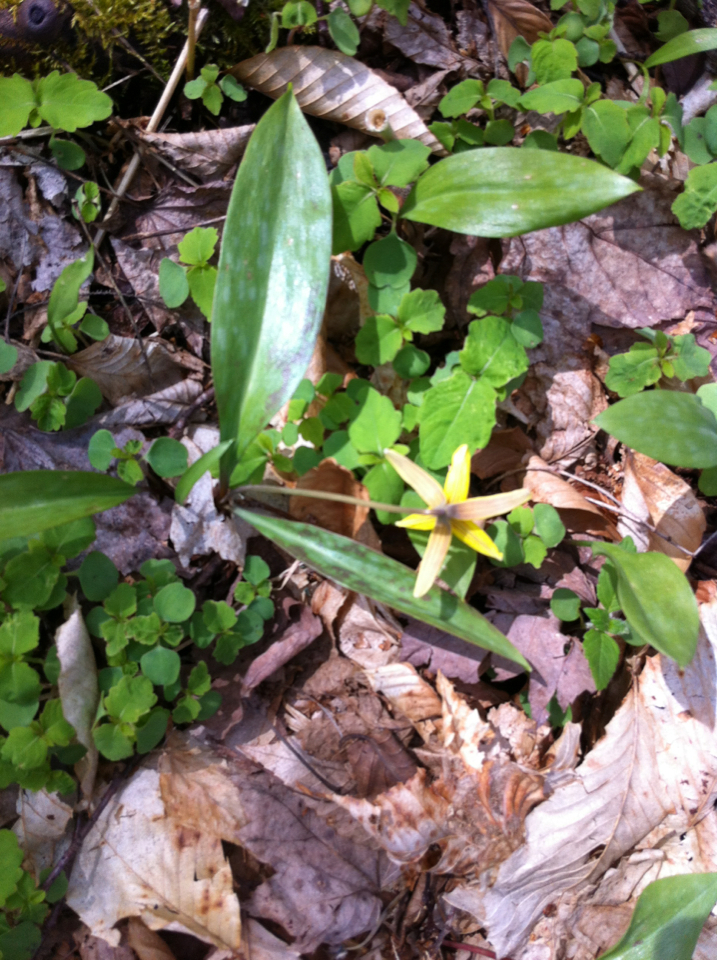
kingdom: Plantae
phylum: Tracheophyta
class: Liliopsida
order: Liliales
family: Liliaceae
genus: Erythronium
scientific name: Erythronium americanum
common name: Yellow adder's-tongue
